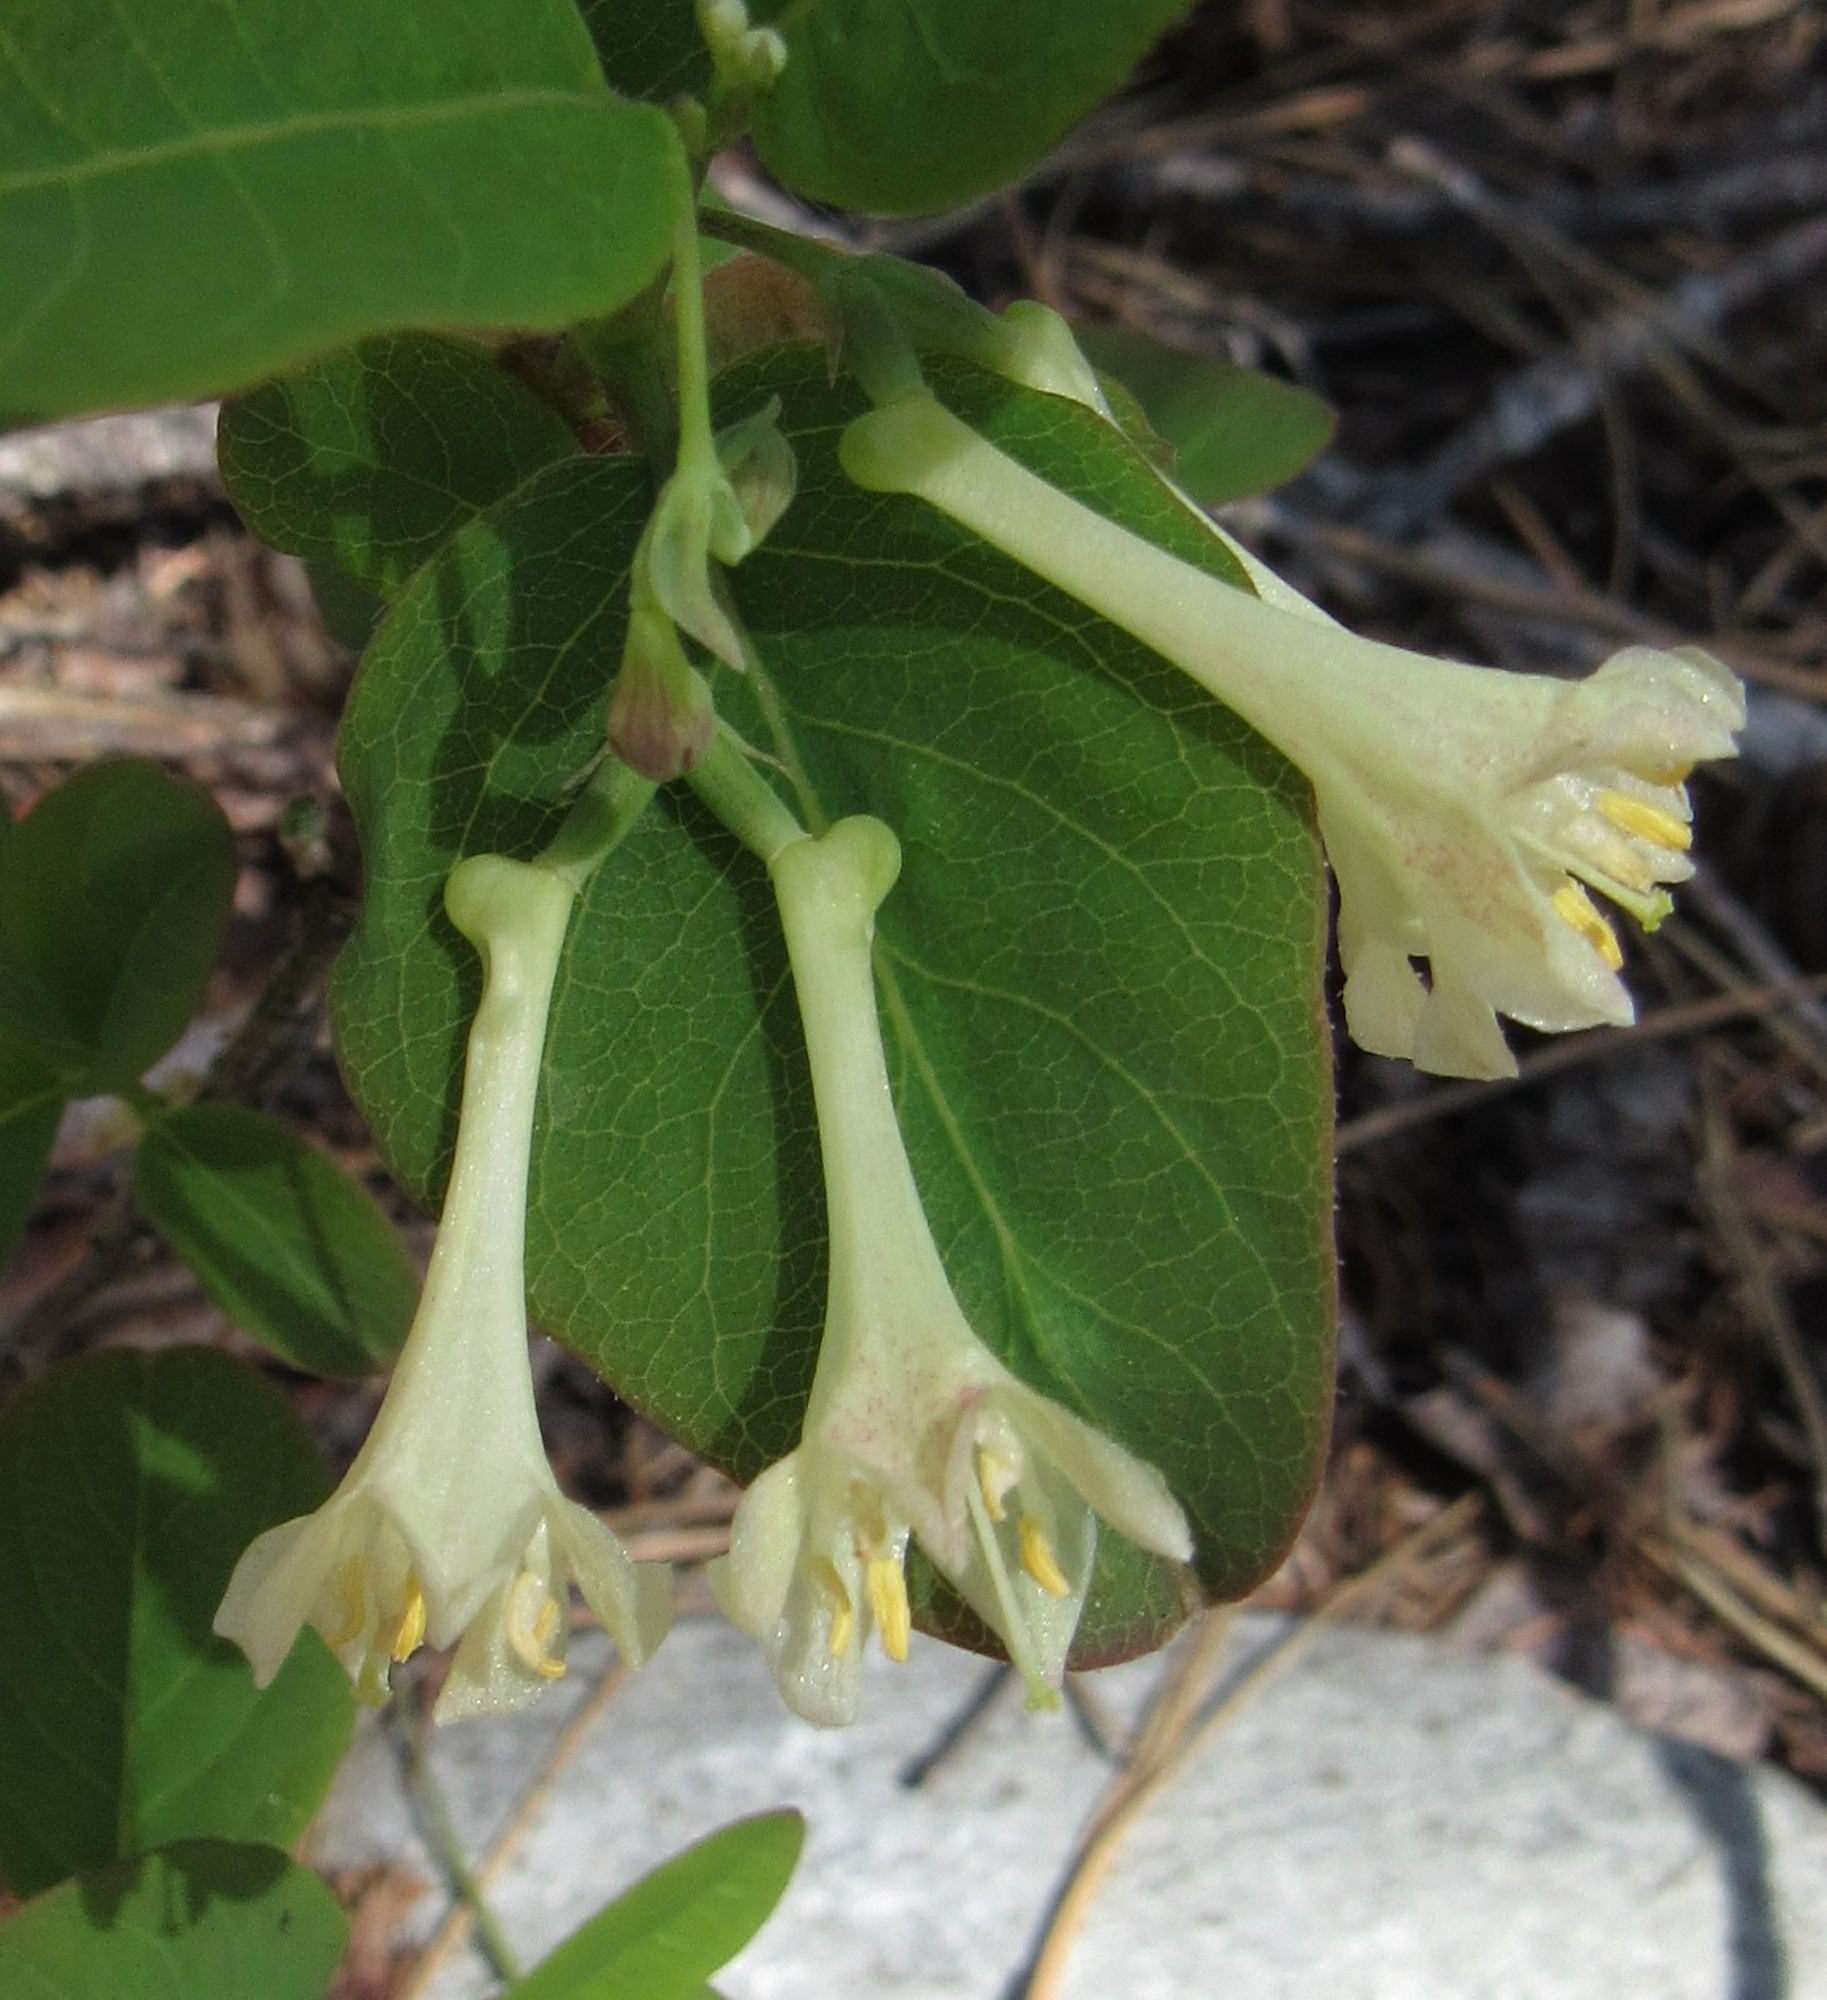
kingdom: Plantae
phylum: Tracheophyta
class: Magnoliopsida
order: Dipsacales
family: Caprifoliaceae
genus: Lonicera
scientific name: Lonicera utahensis
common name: Utah honeysuckle
